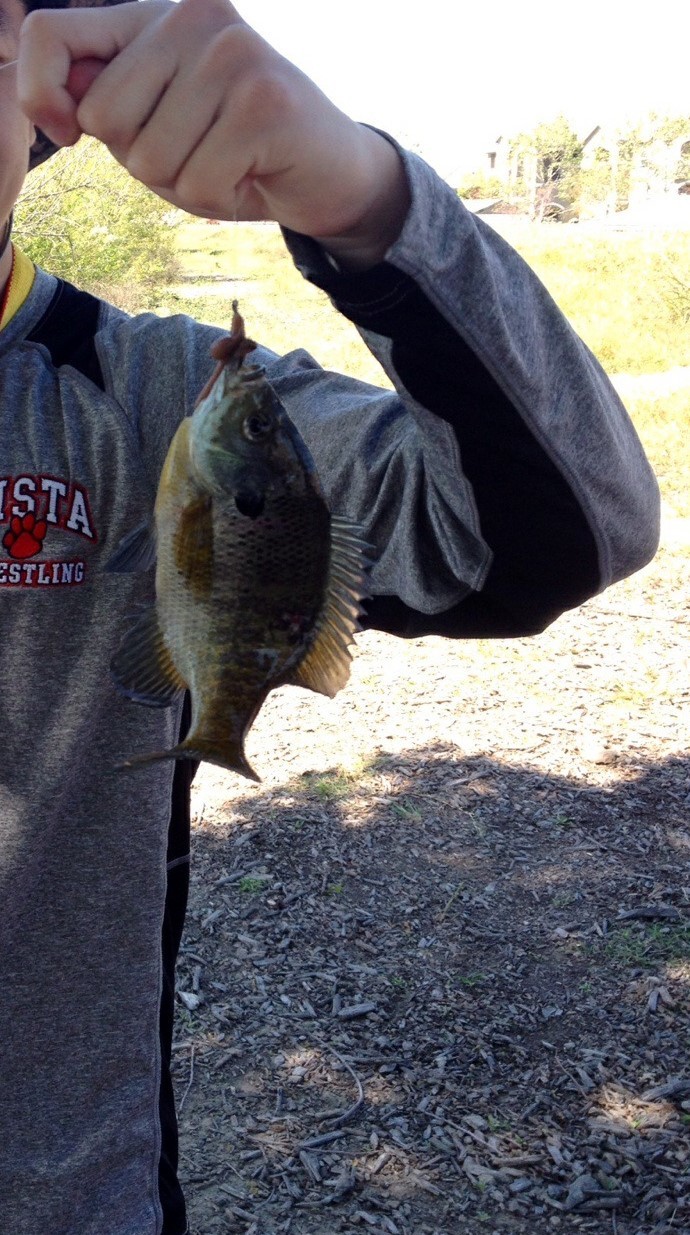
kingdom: Animalia
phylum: Chordata
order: Perciformes
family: Centrarchidae
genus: Lepomis
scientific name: Lepomis macrochirus
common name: Bluegill
